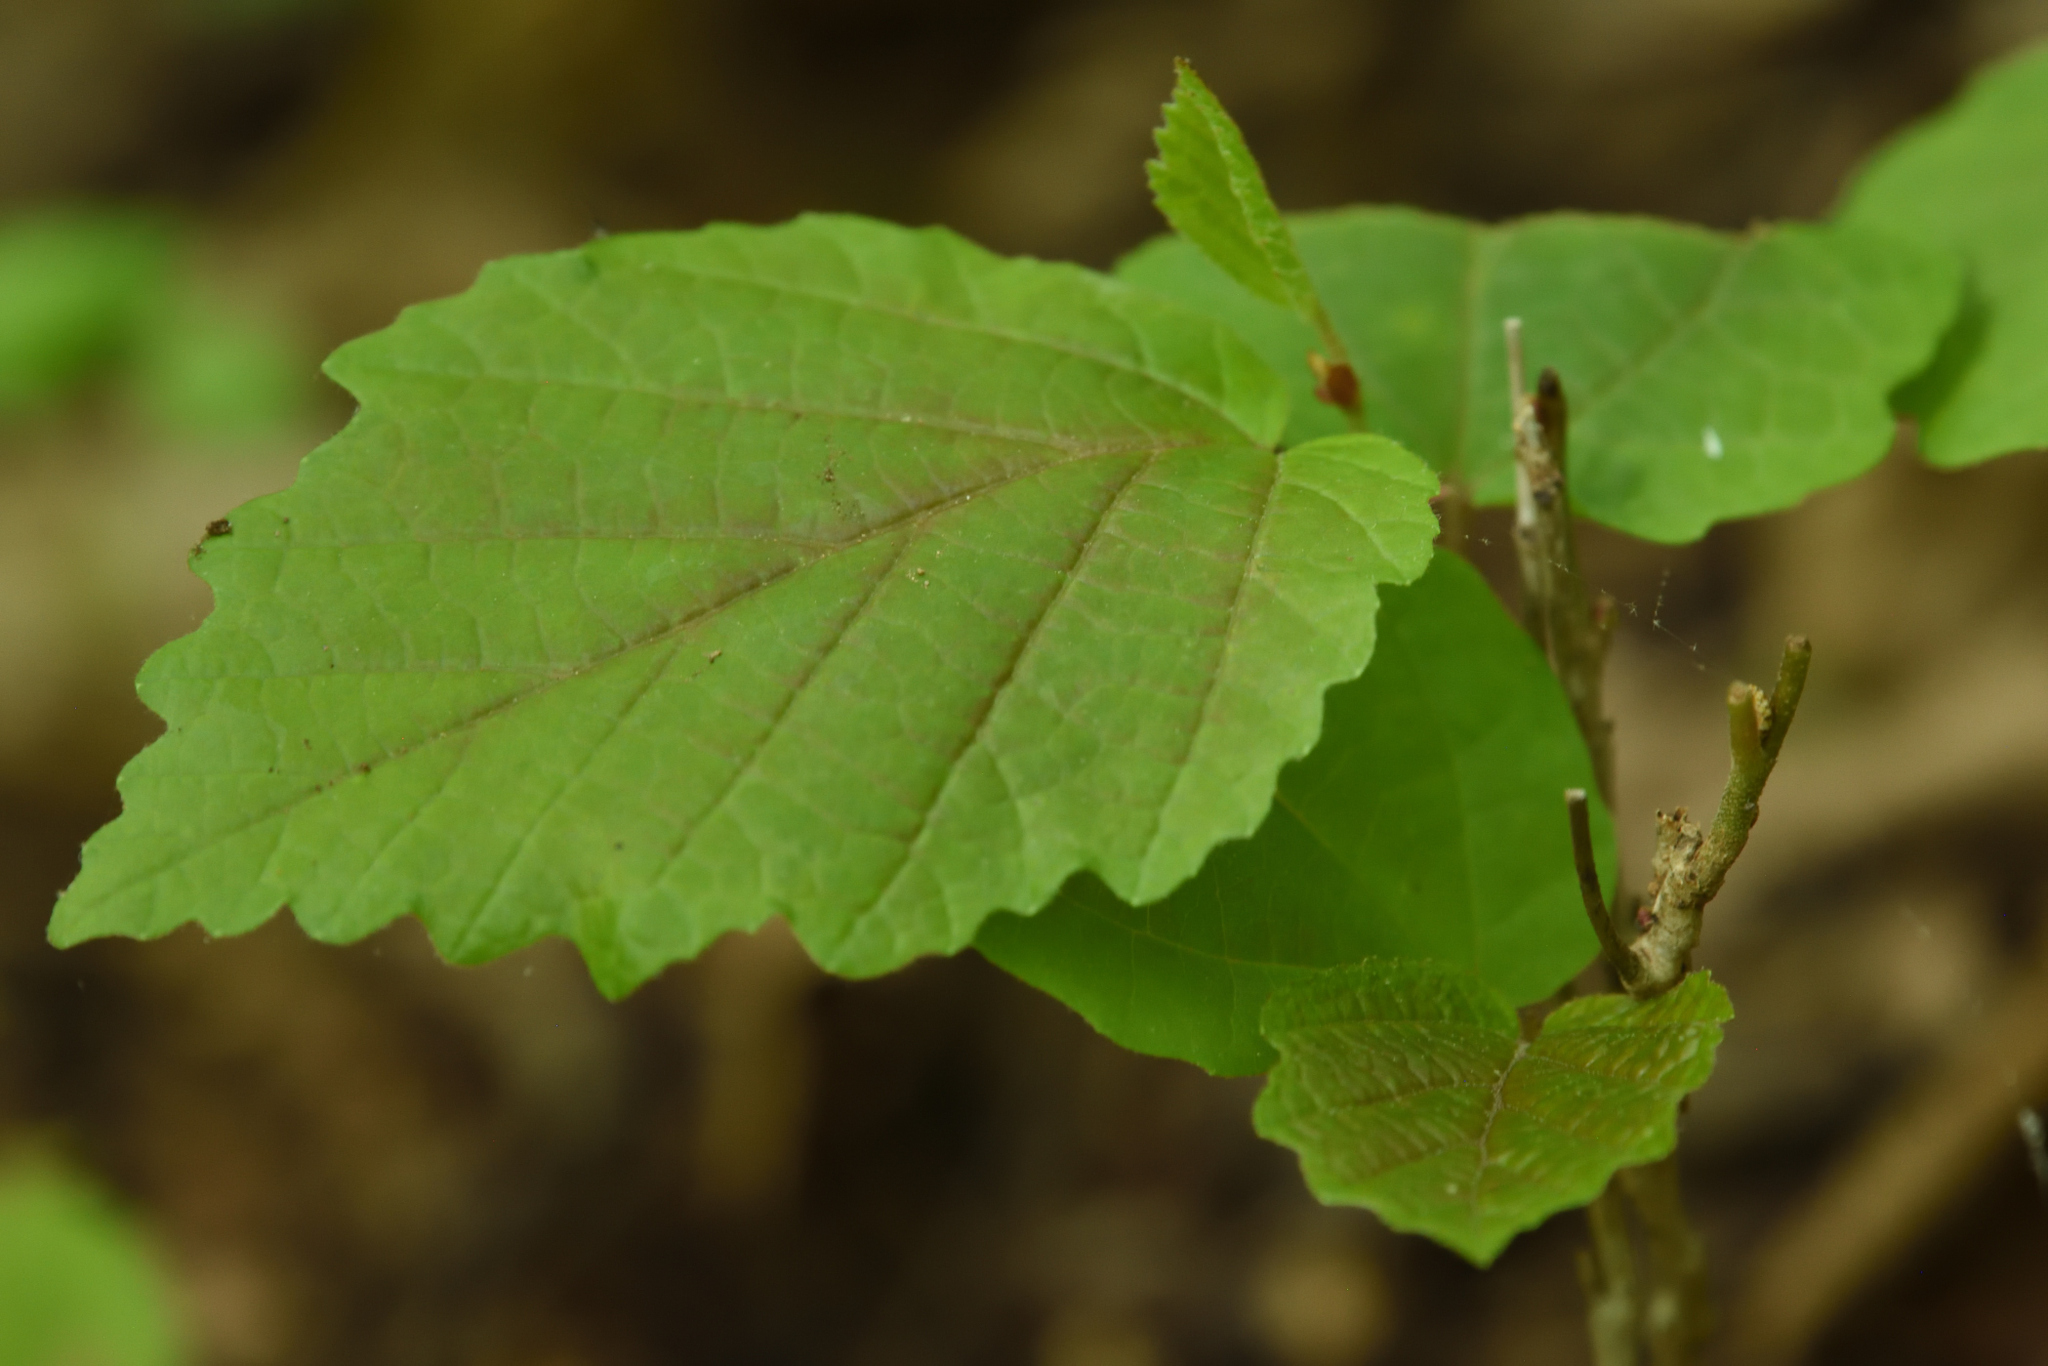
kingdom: Plantae
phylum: Tracheophyta
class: Magnoliopsida
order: Saxifragales
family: Hamamelidaceae
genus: Hamamelis
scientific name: Hamamelis virginiana
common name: Witch-hazel
